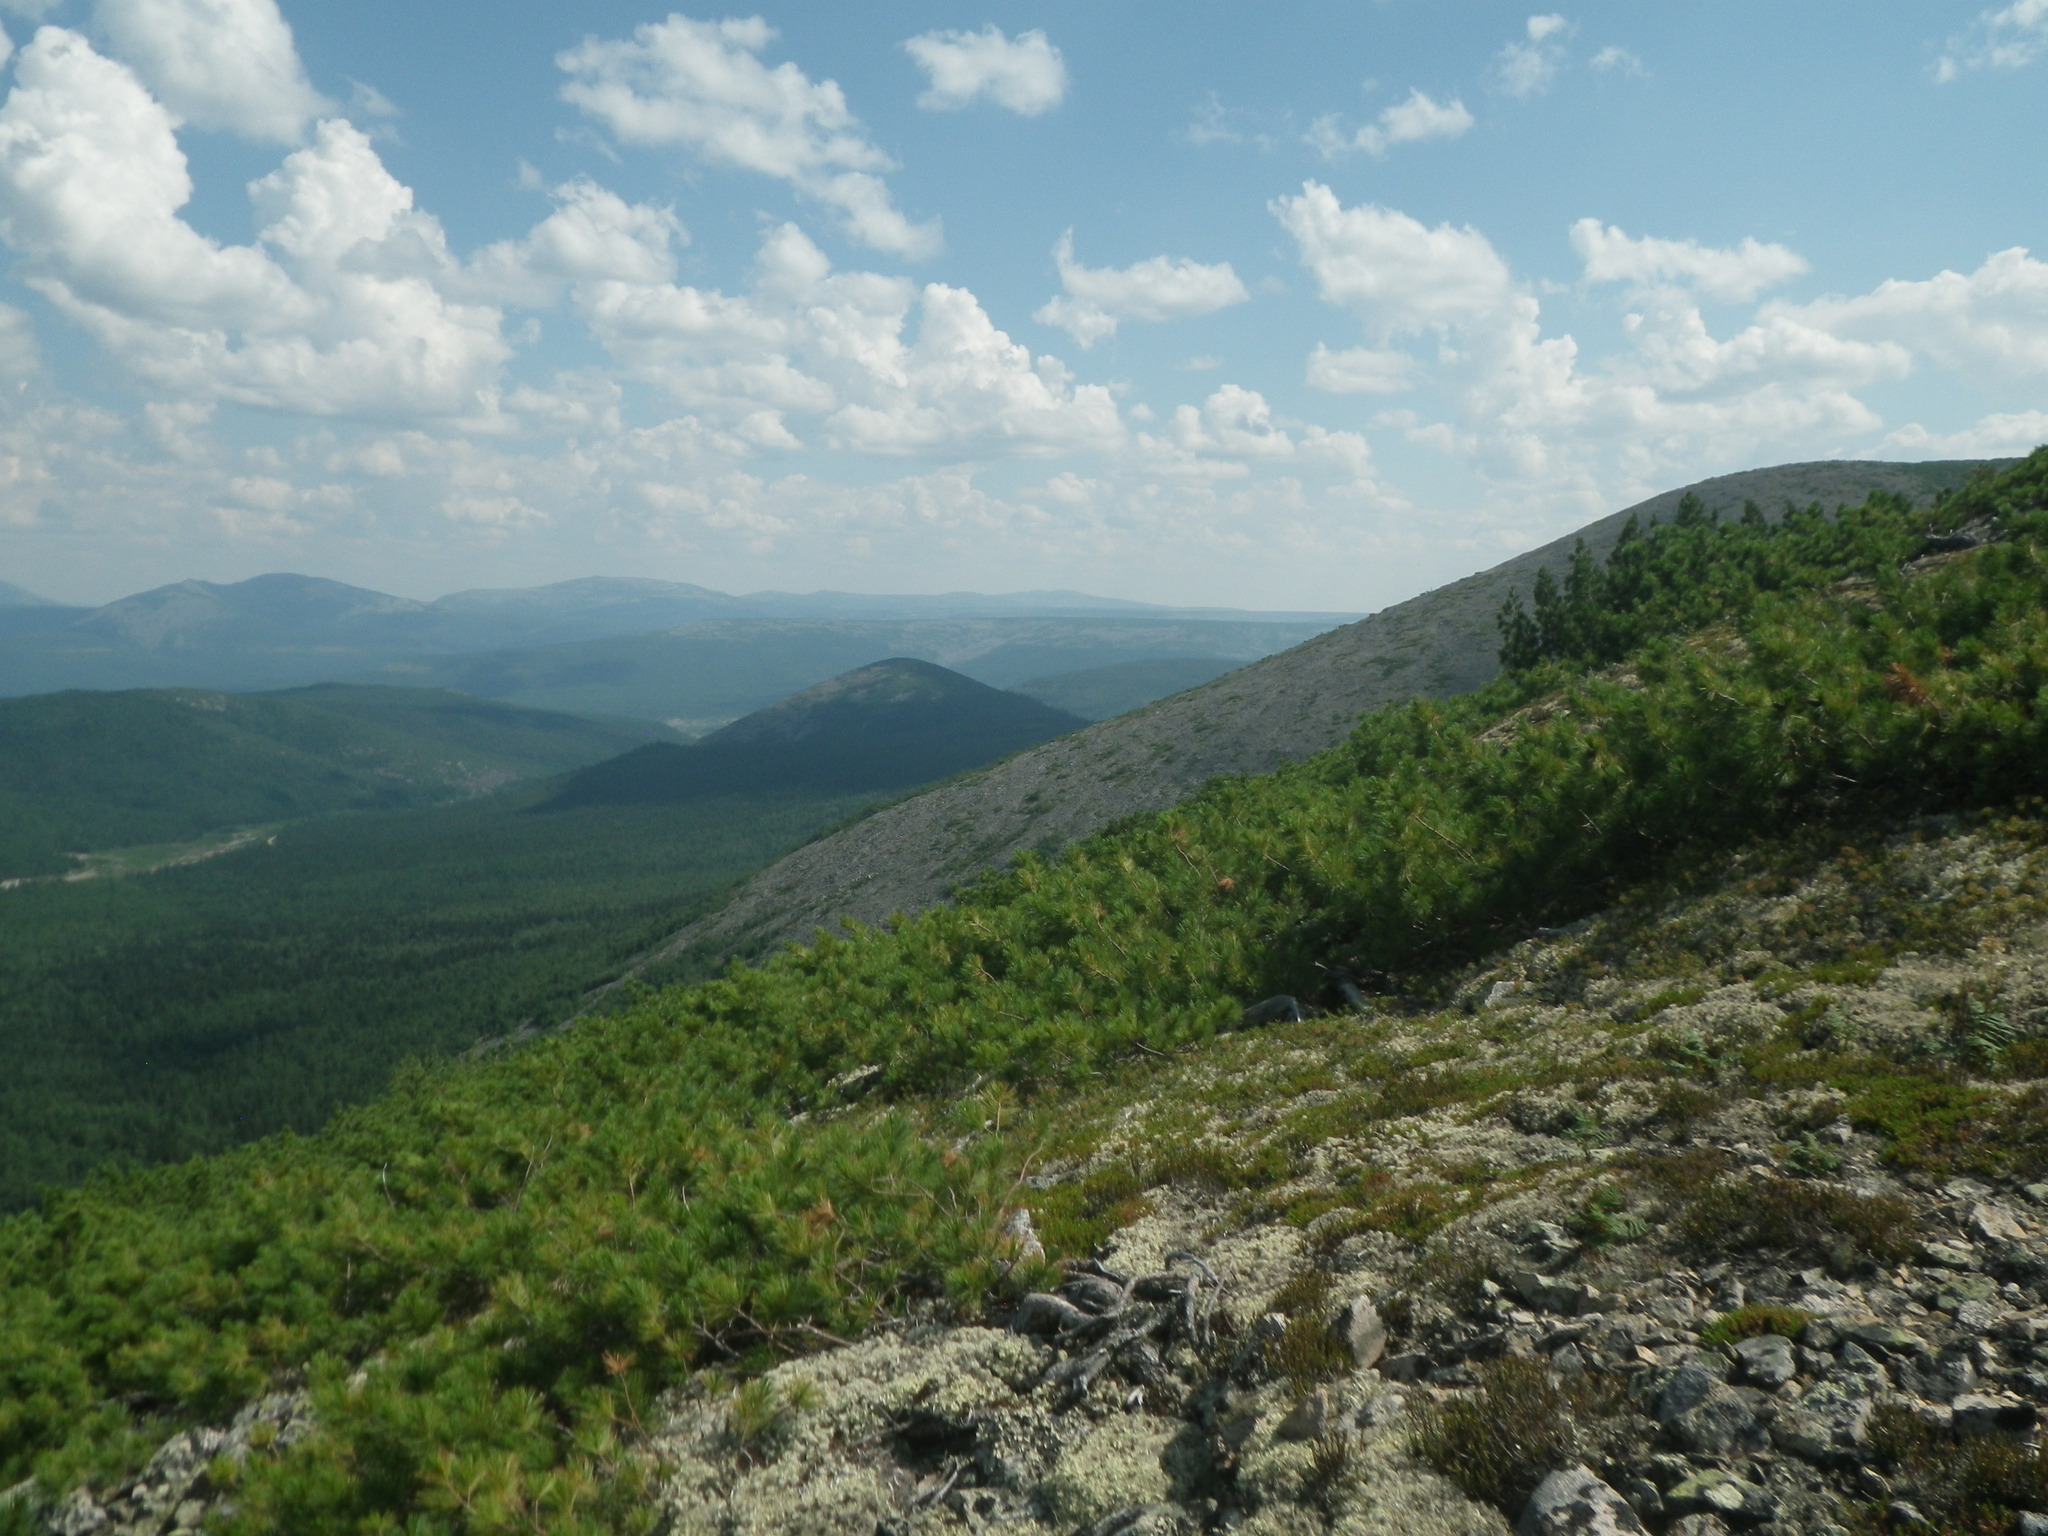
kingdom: Plantae
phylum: Tracheophyta
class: Pinopsida
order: Pinales
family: Pinaceae
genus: Pinus
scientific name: Pinus pumila
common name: Dwarf siberian pine
